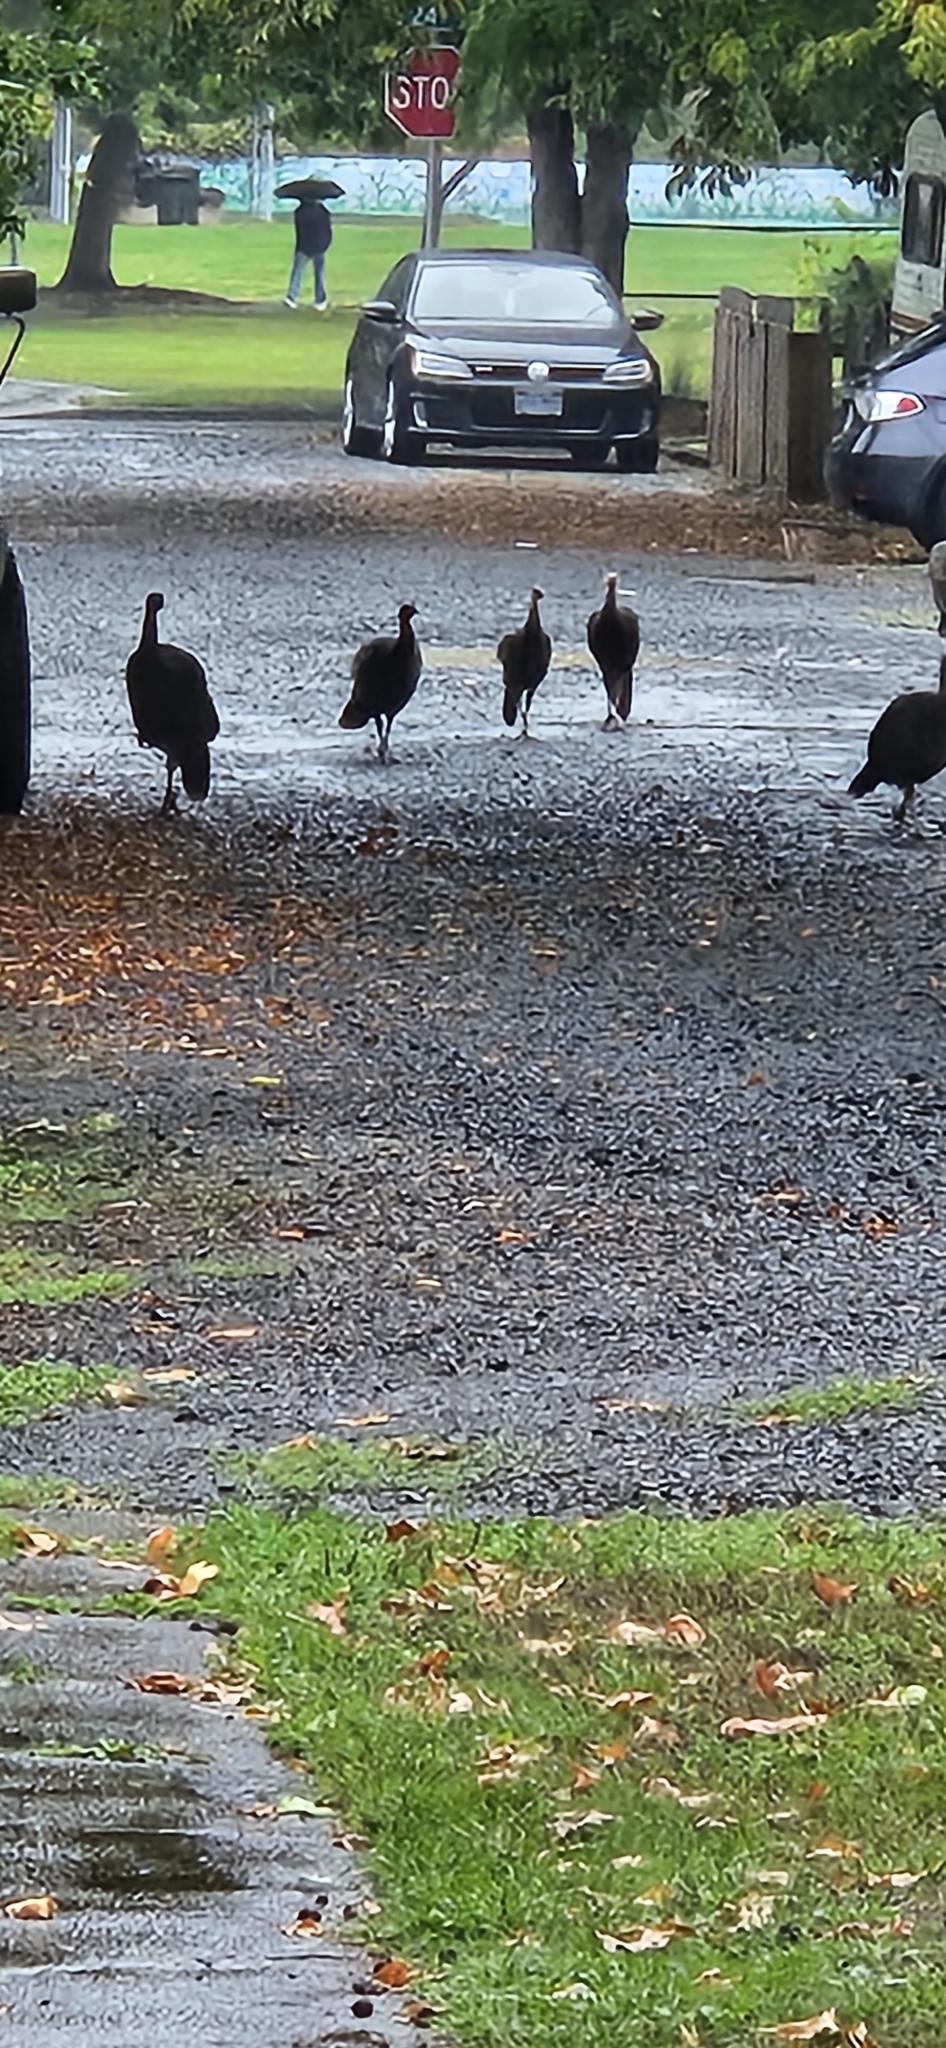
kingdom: Animalia
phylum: Chordata
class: Aves
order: Galliformes
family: Phasianidae
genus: Meleagris
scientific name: Meleagris gallopavo
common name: Wild turkey
